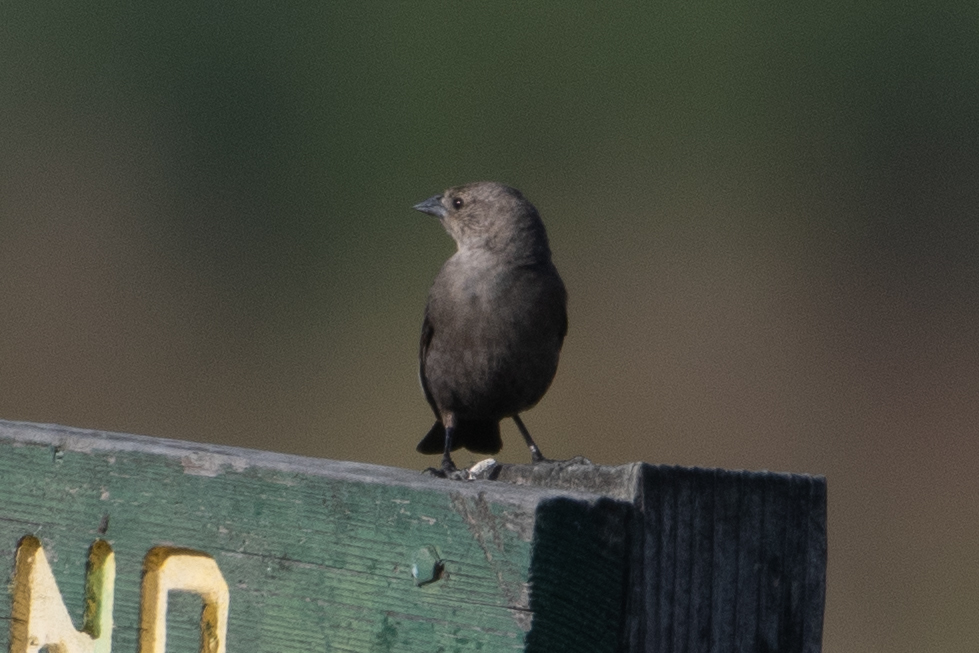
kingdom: Animalia
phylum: Chordata
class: Aves
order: Passeriformes
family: Icteridae
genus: Molothrus
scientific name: Molothrus ater
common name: Brown-headed cowbird
